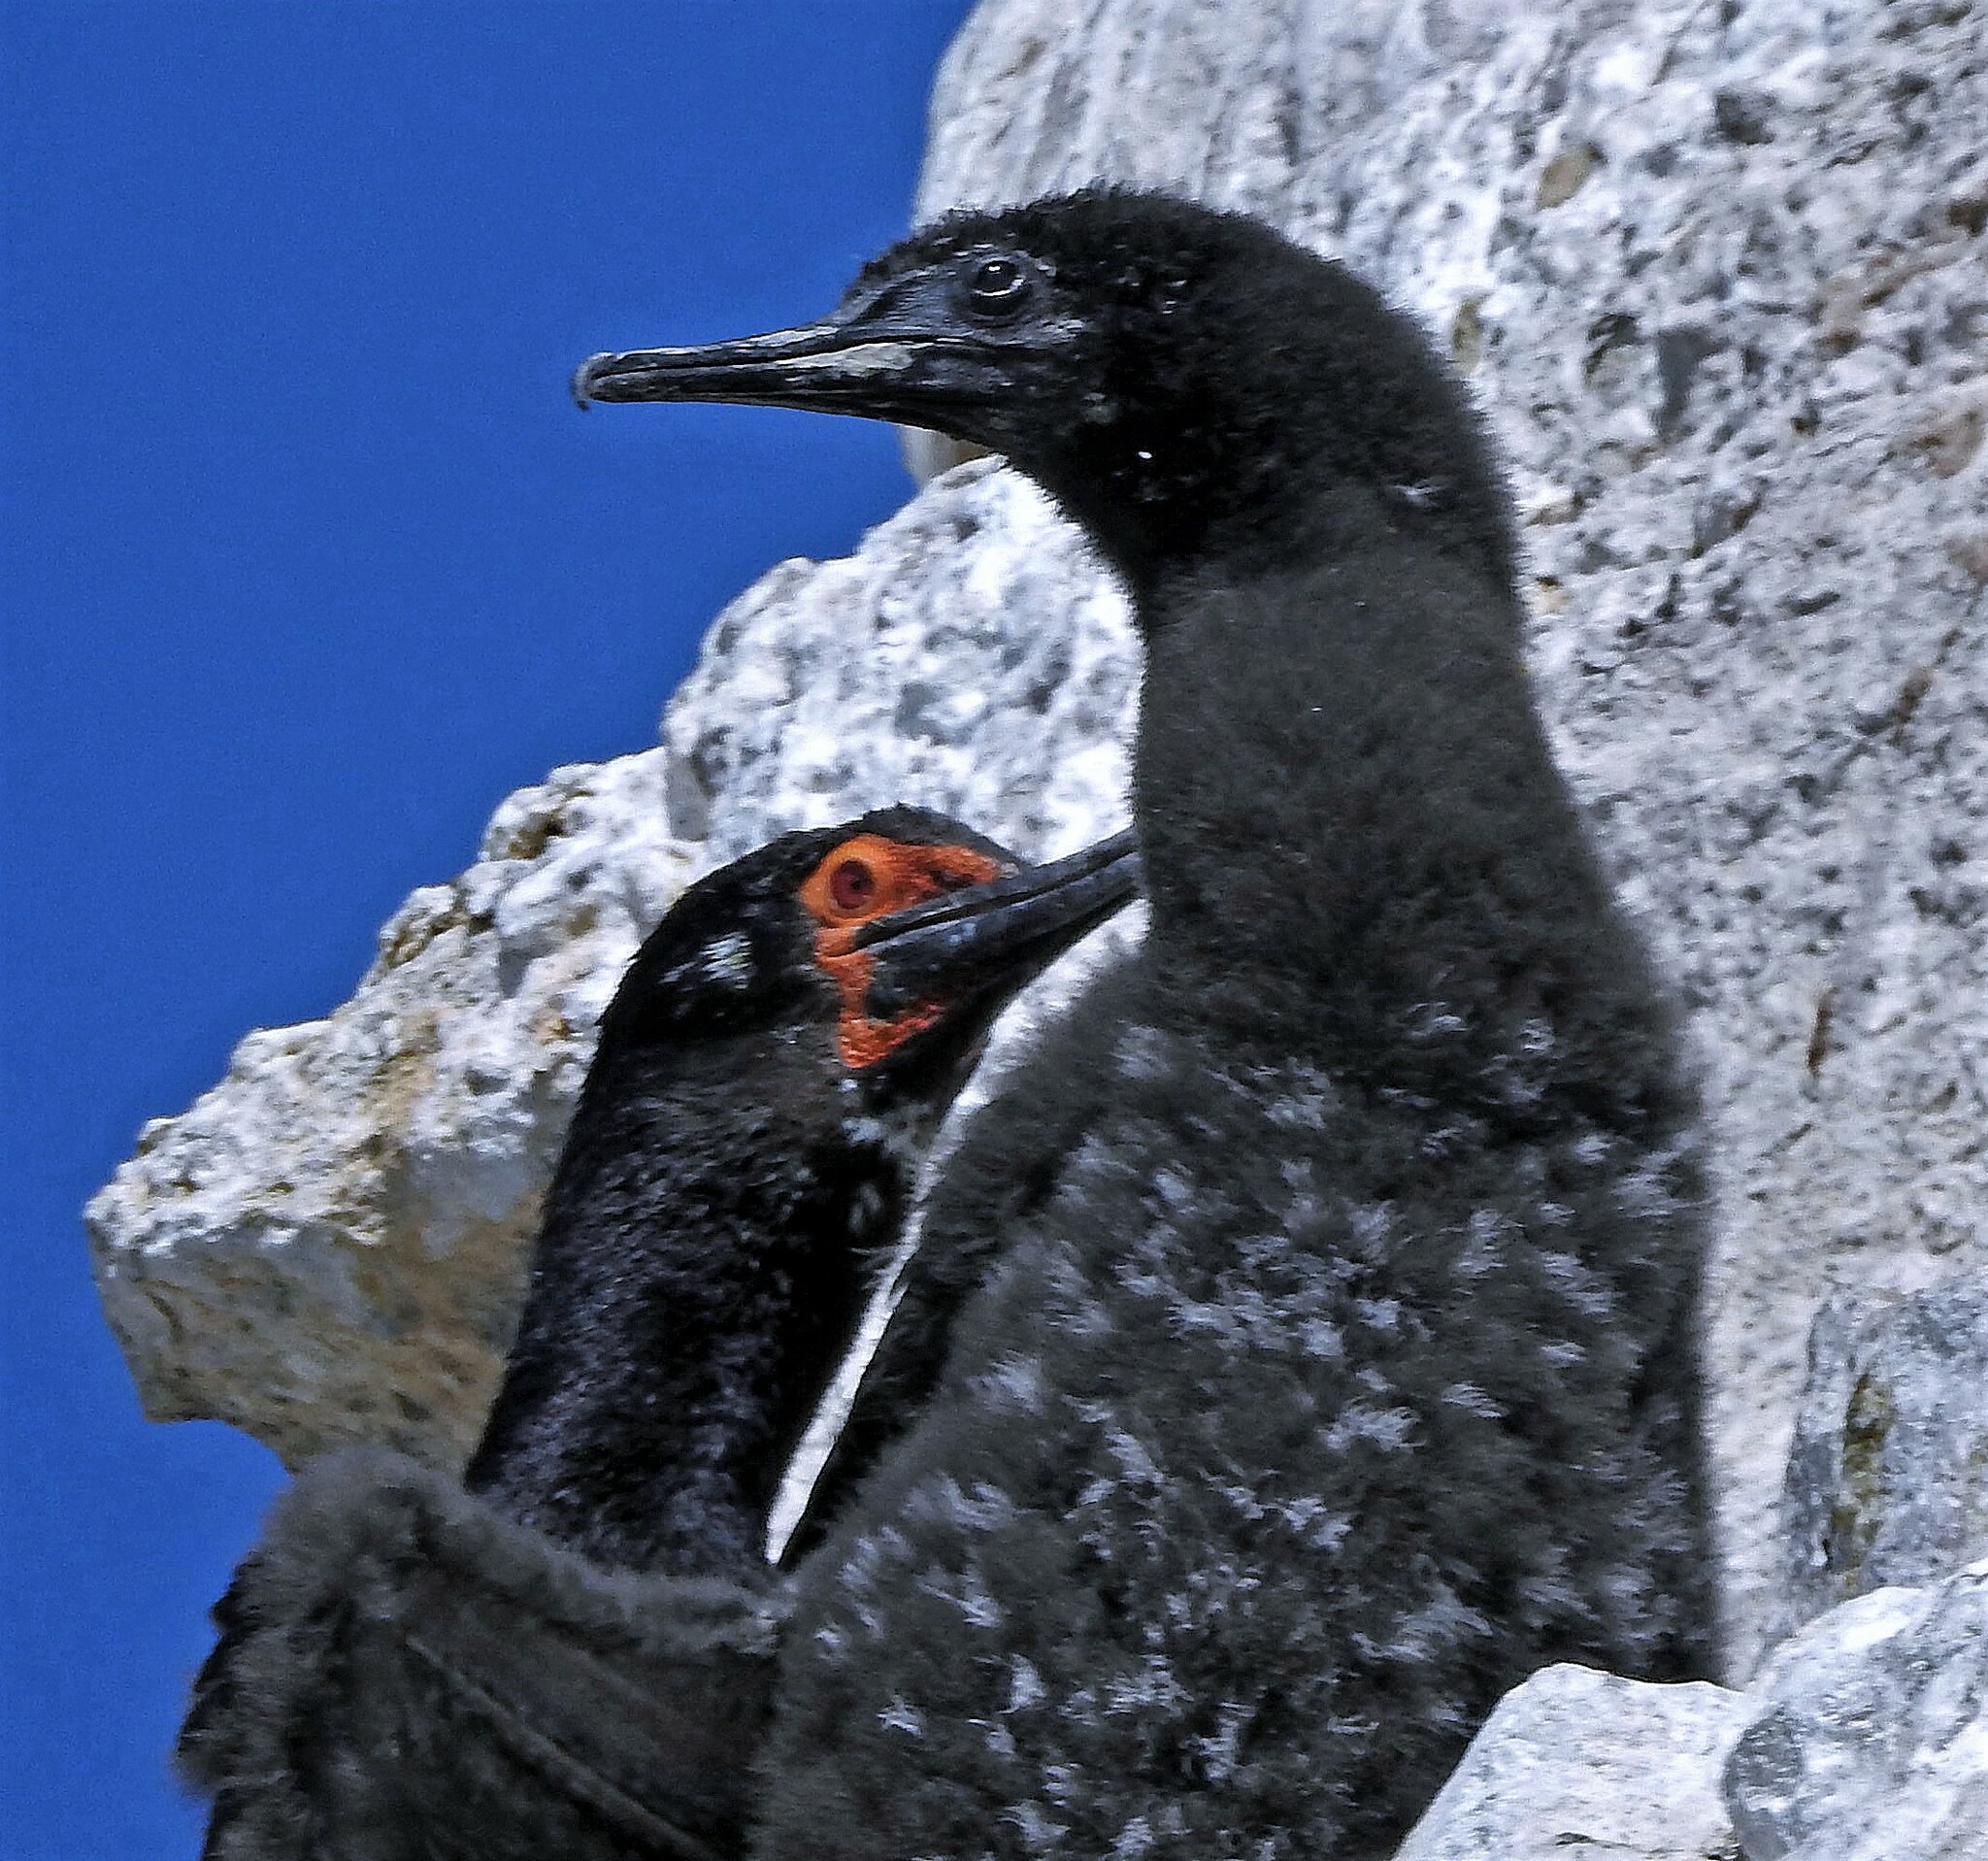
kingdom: Animalia
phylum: Chordata
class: Aves
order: Suliformes
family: Phalacrocoracidae
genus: Phalacrocorax
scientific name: Phalacrocorax magellanicus
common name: Rock shag
